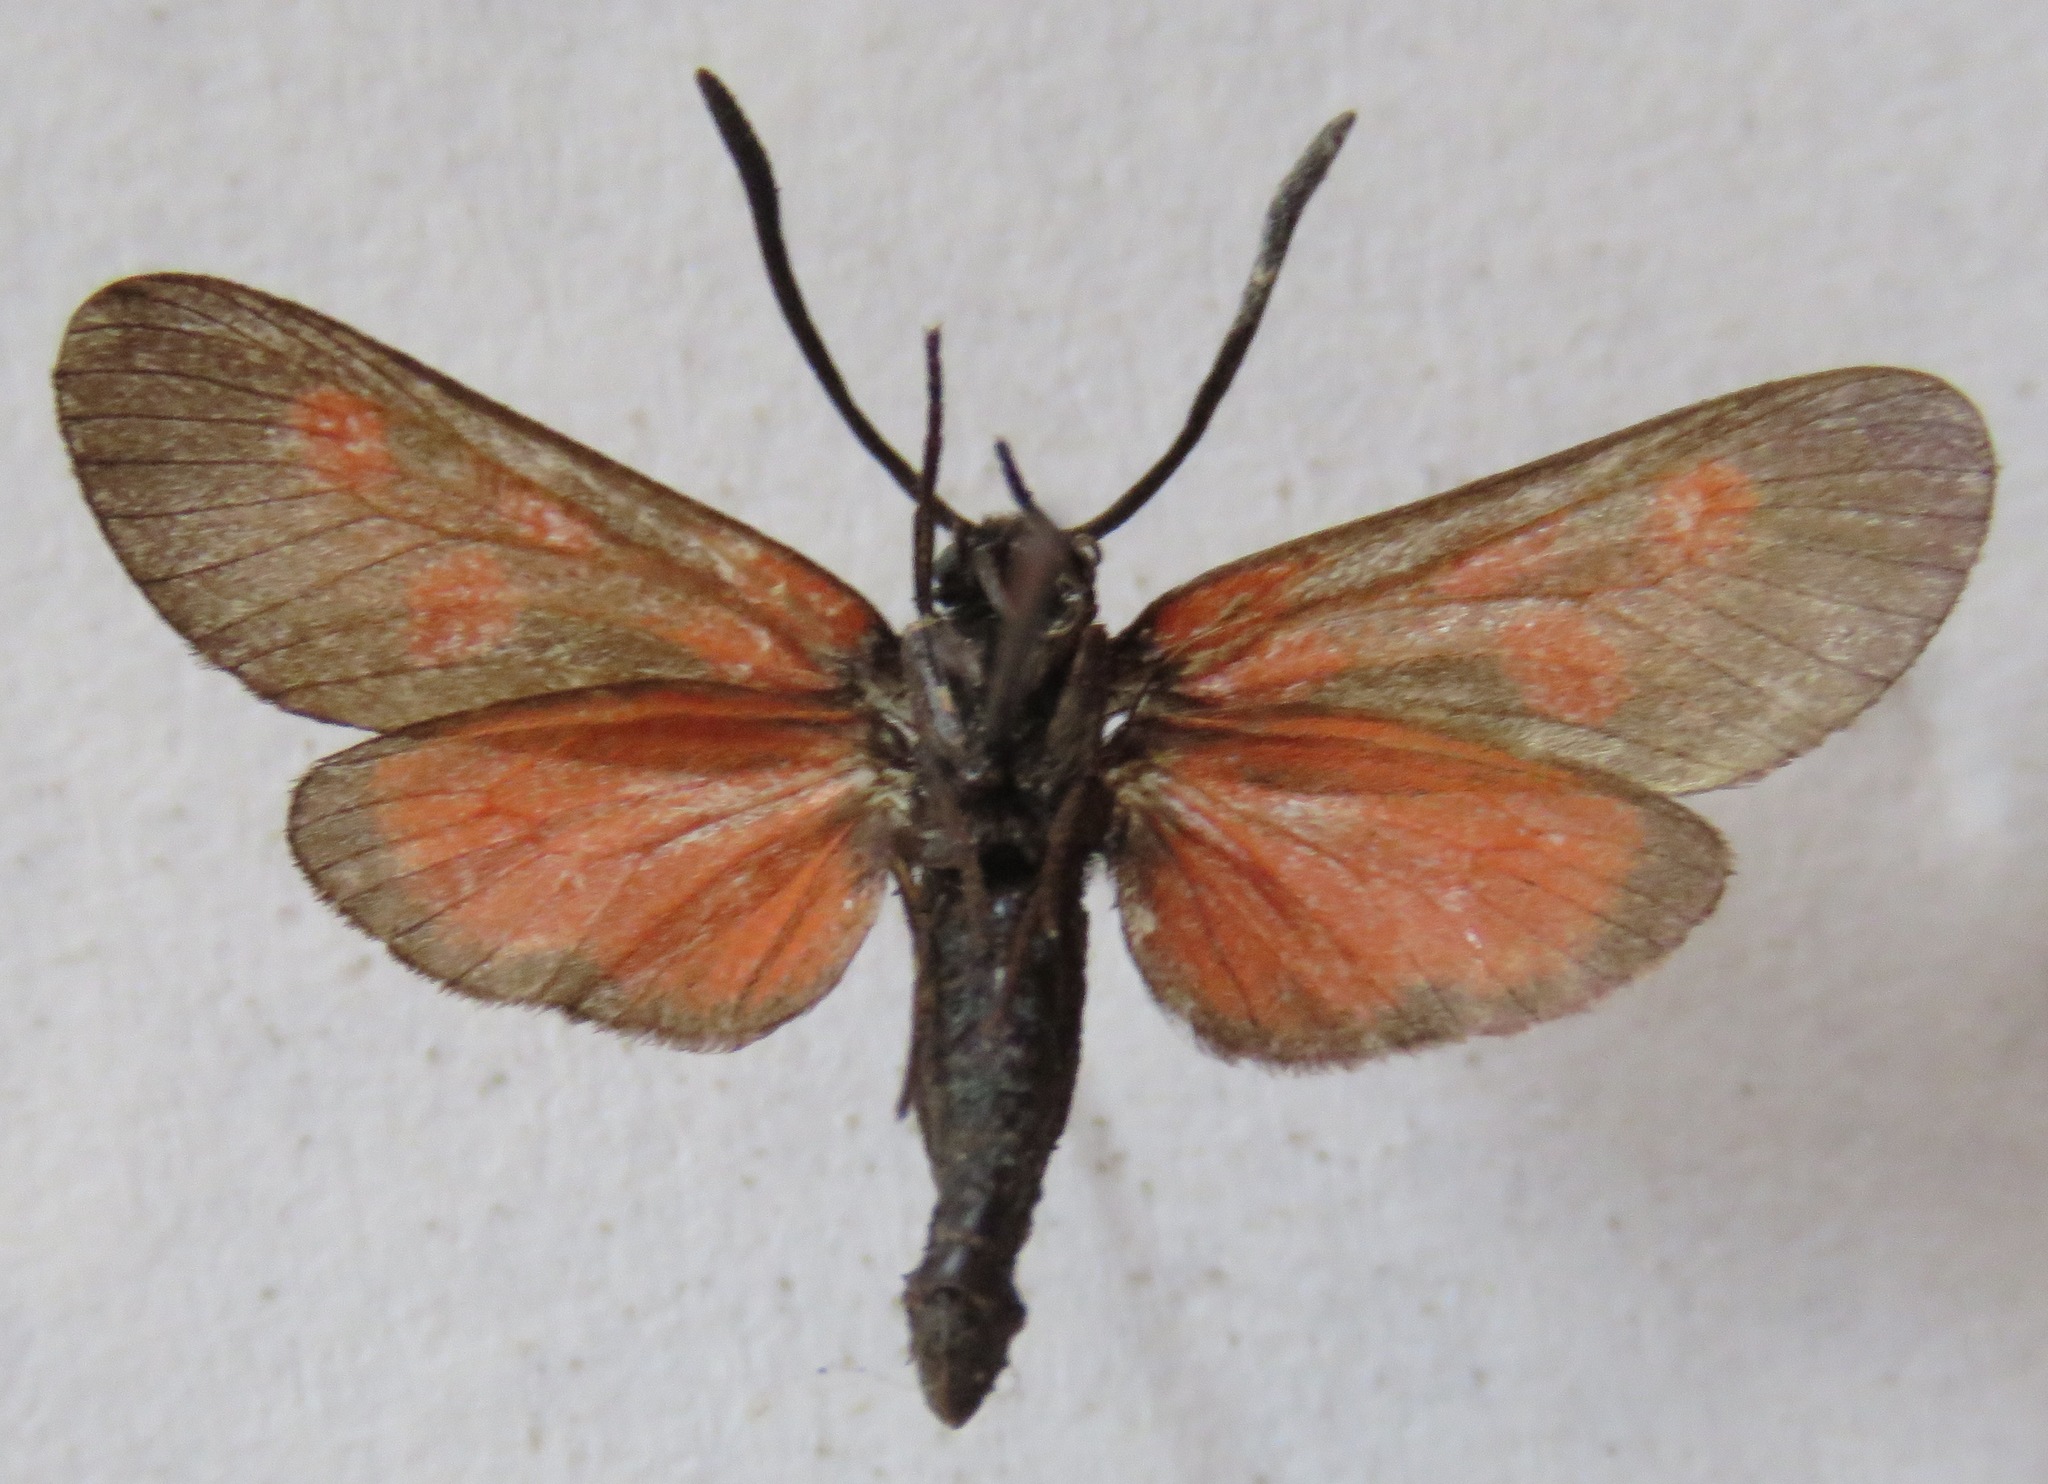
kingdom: Animalia
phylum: Arthropoda
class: Insecta
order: Lepidoptera
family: Zygaenidae
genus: Zygaena
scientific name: Zygaena viciae
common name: New forest burnet
